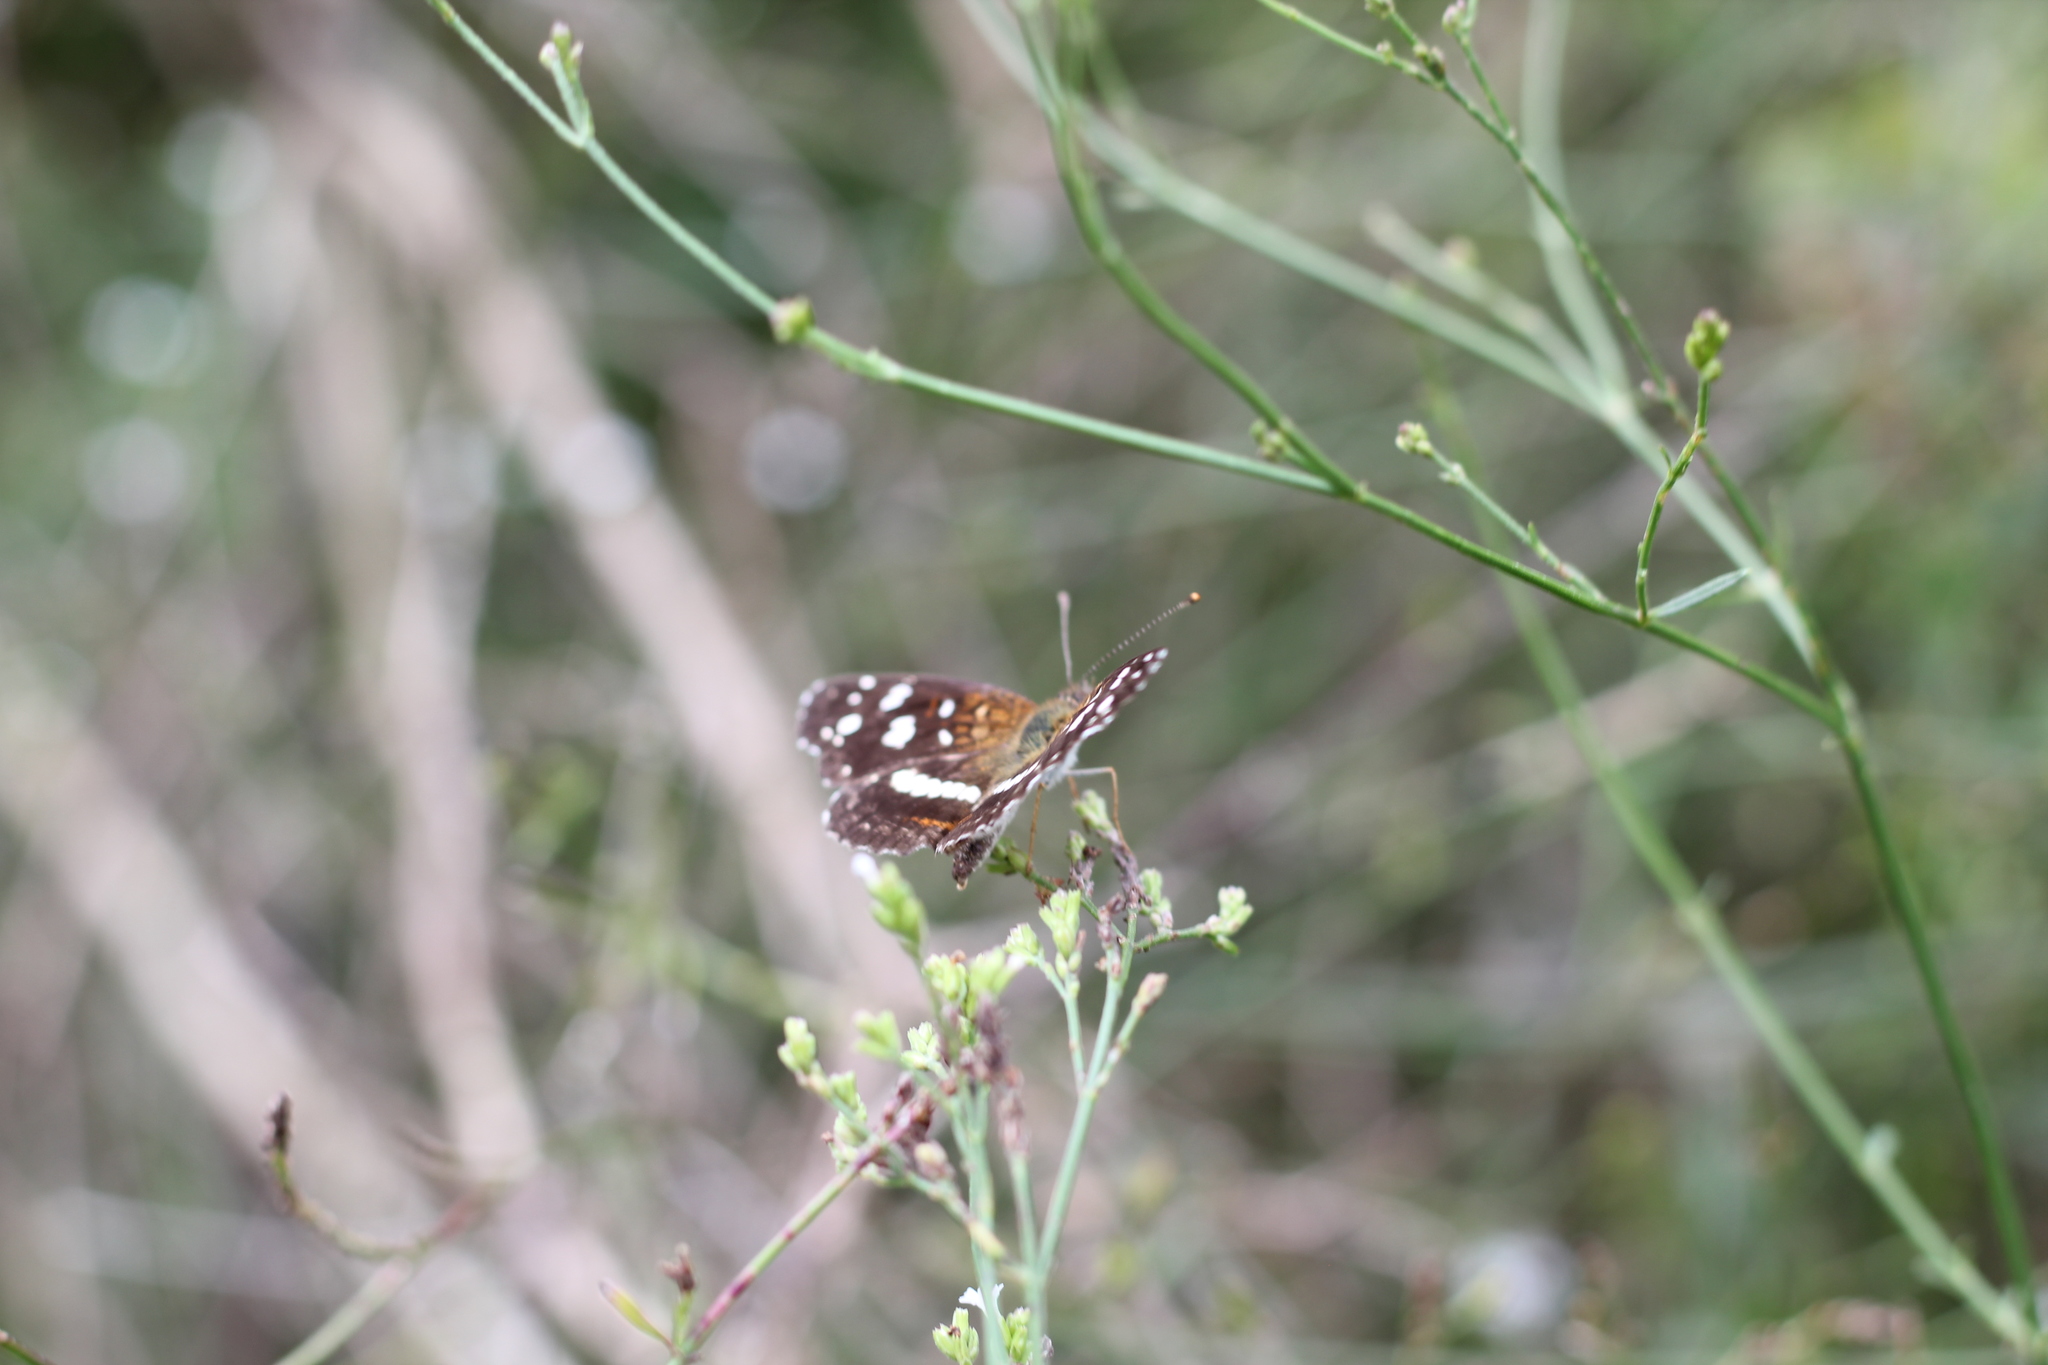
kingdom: Animalia
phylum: Arthropoda
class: Insecta
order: Lepidoptera
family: Nymphalidae
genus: Ortilia
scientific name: Ortilia ithra
